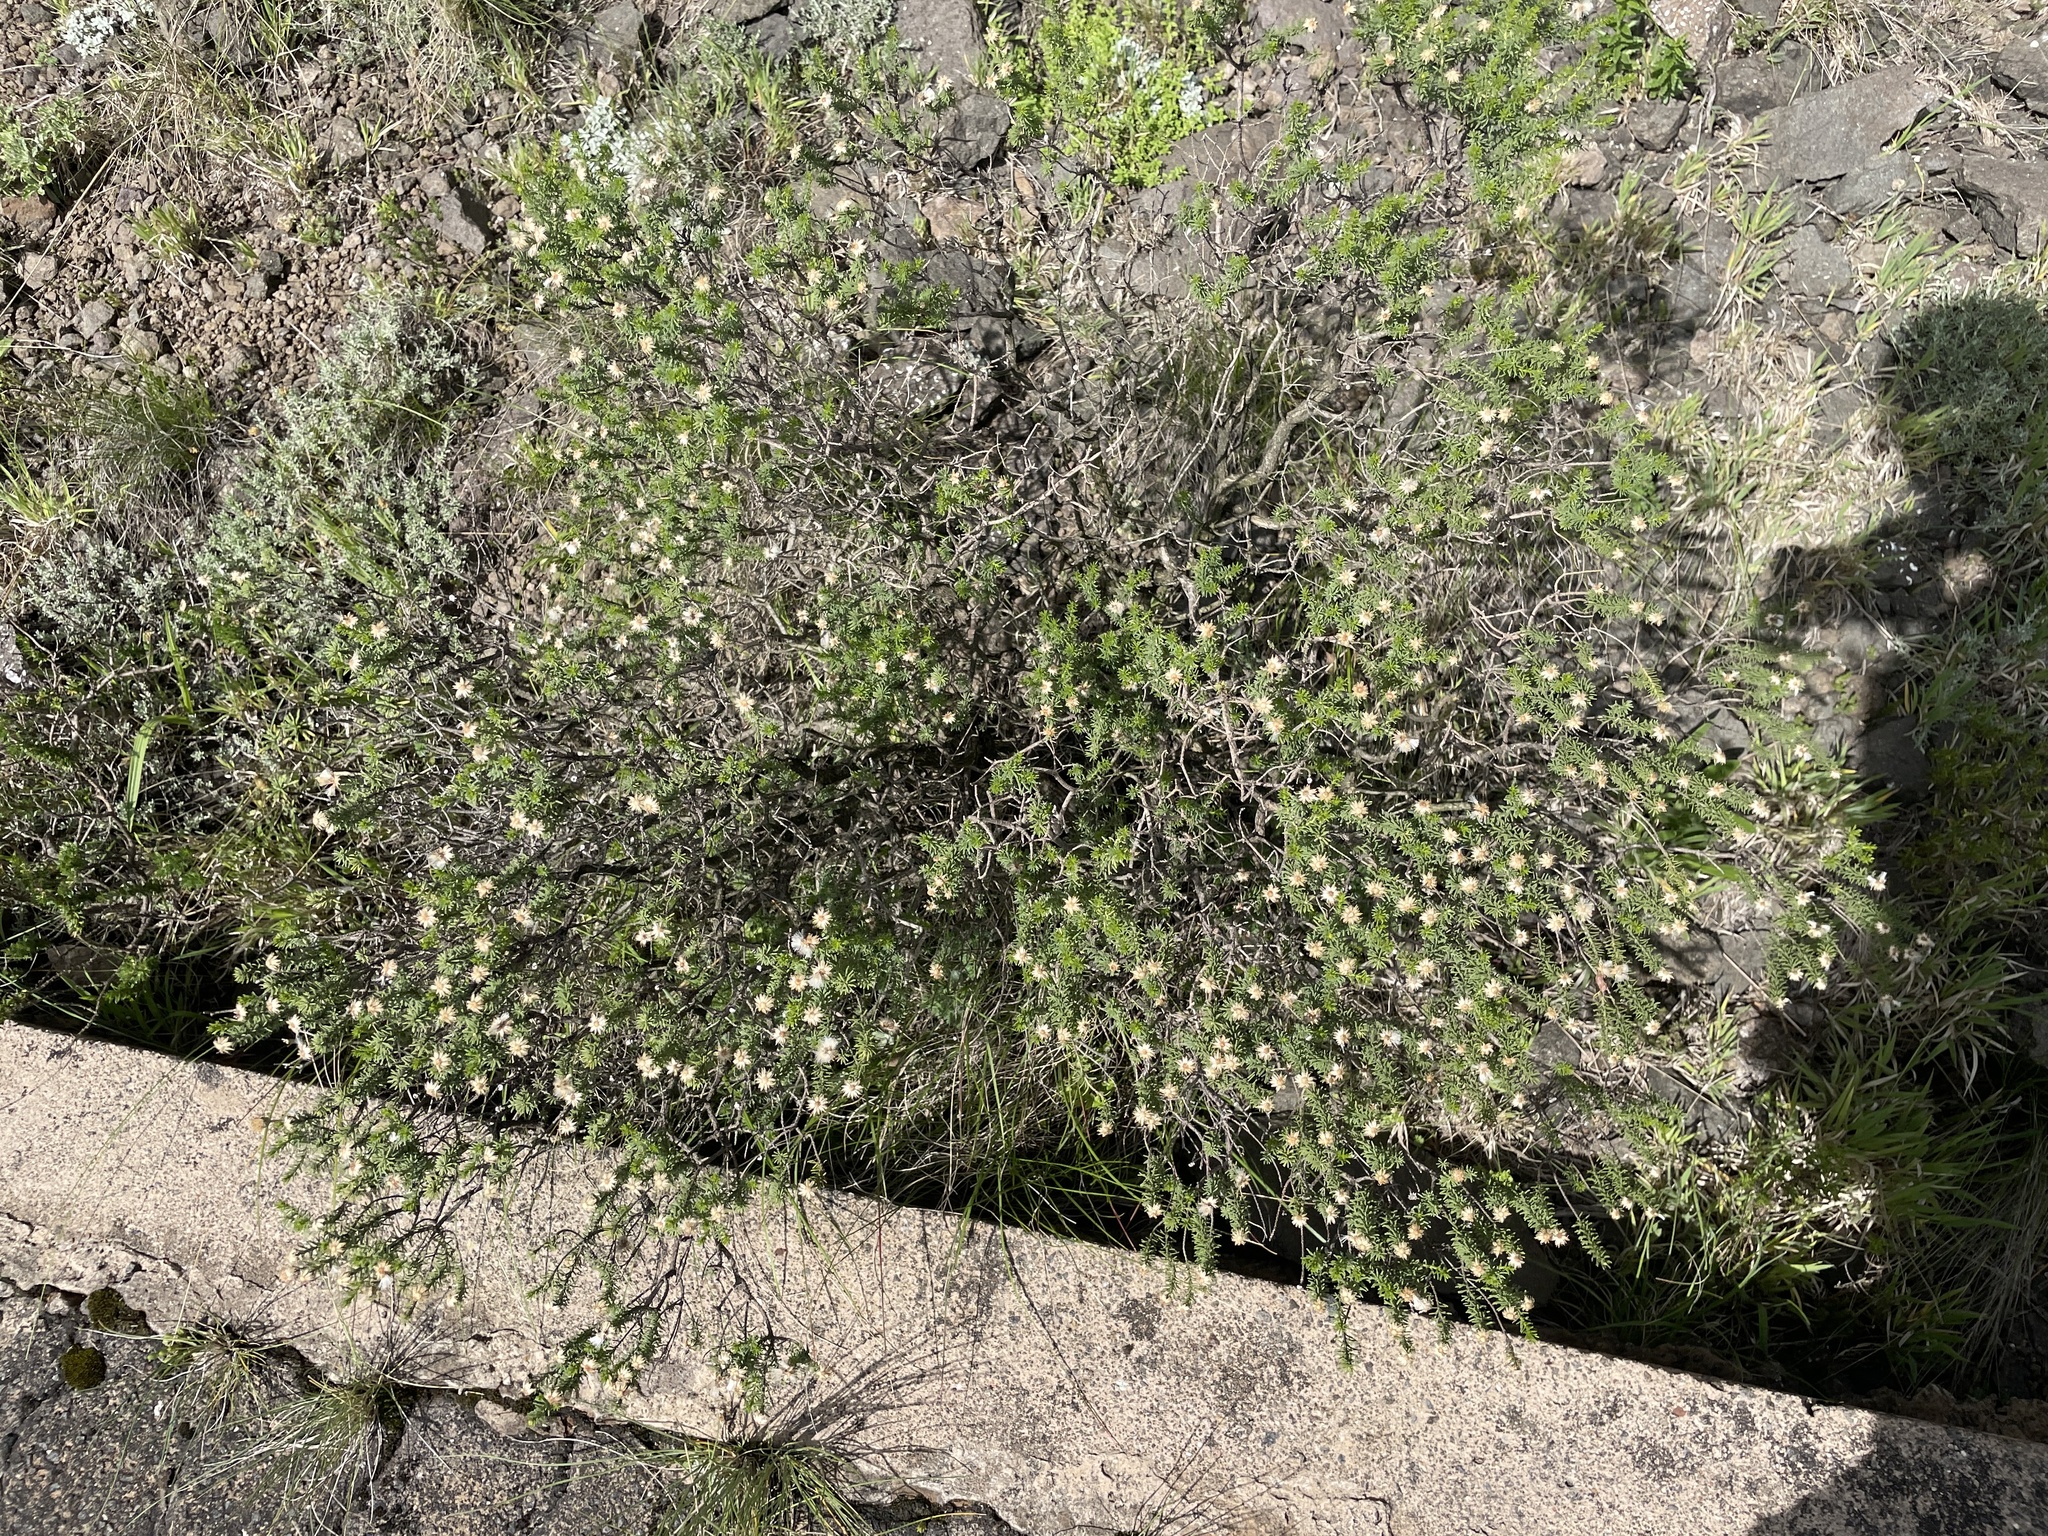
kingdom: Plantae
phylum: Tracheophyta
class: Magnoliopsida
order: Asterales
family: Asteraceae
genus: Chrysocoma
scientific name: Chrysocoma ciliata
